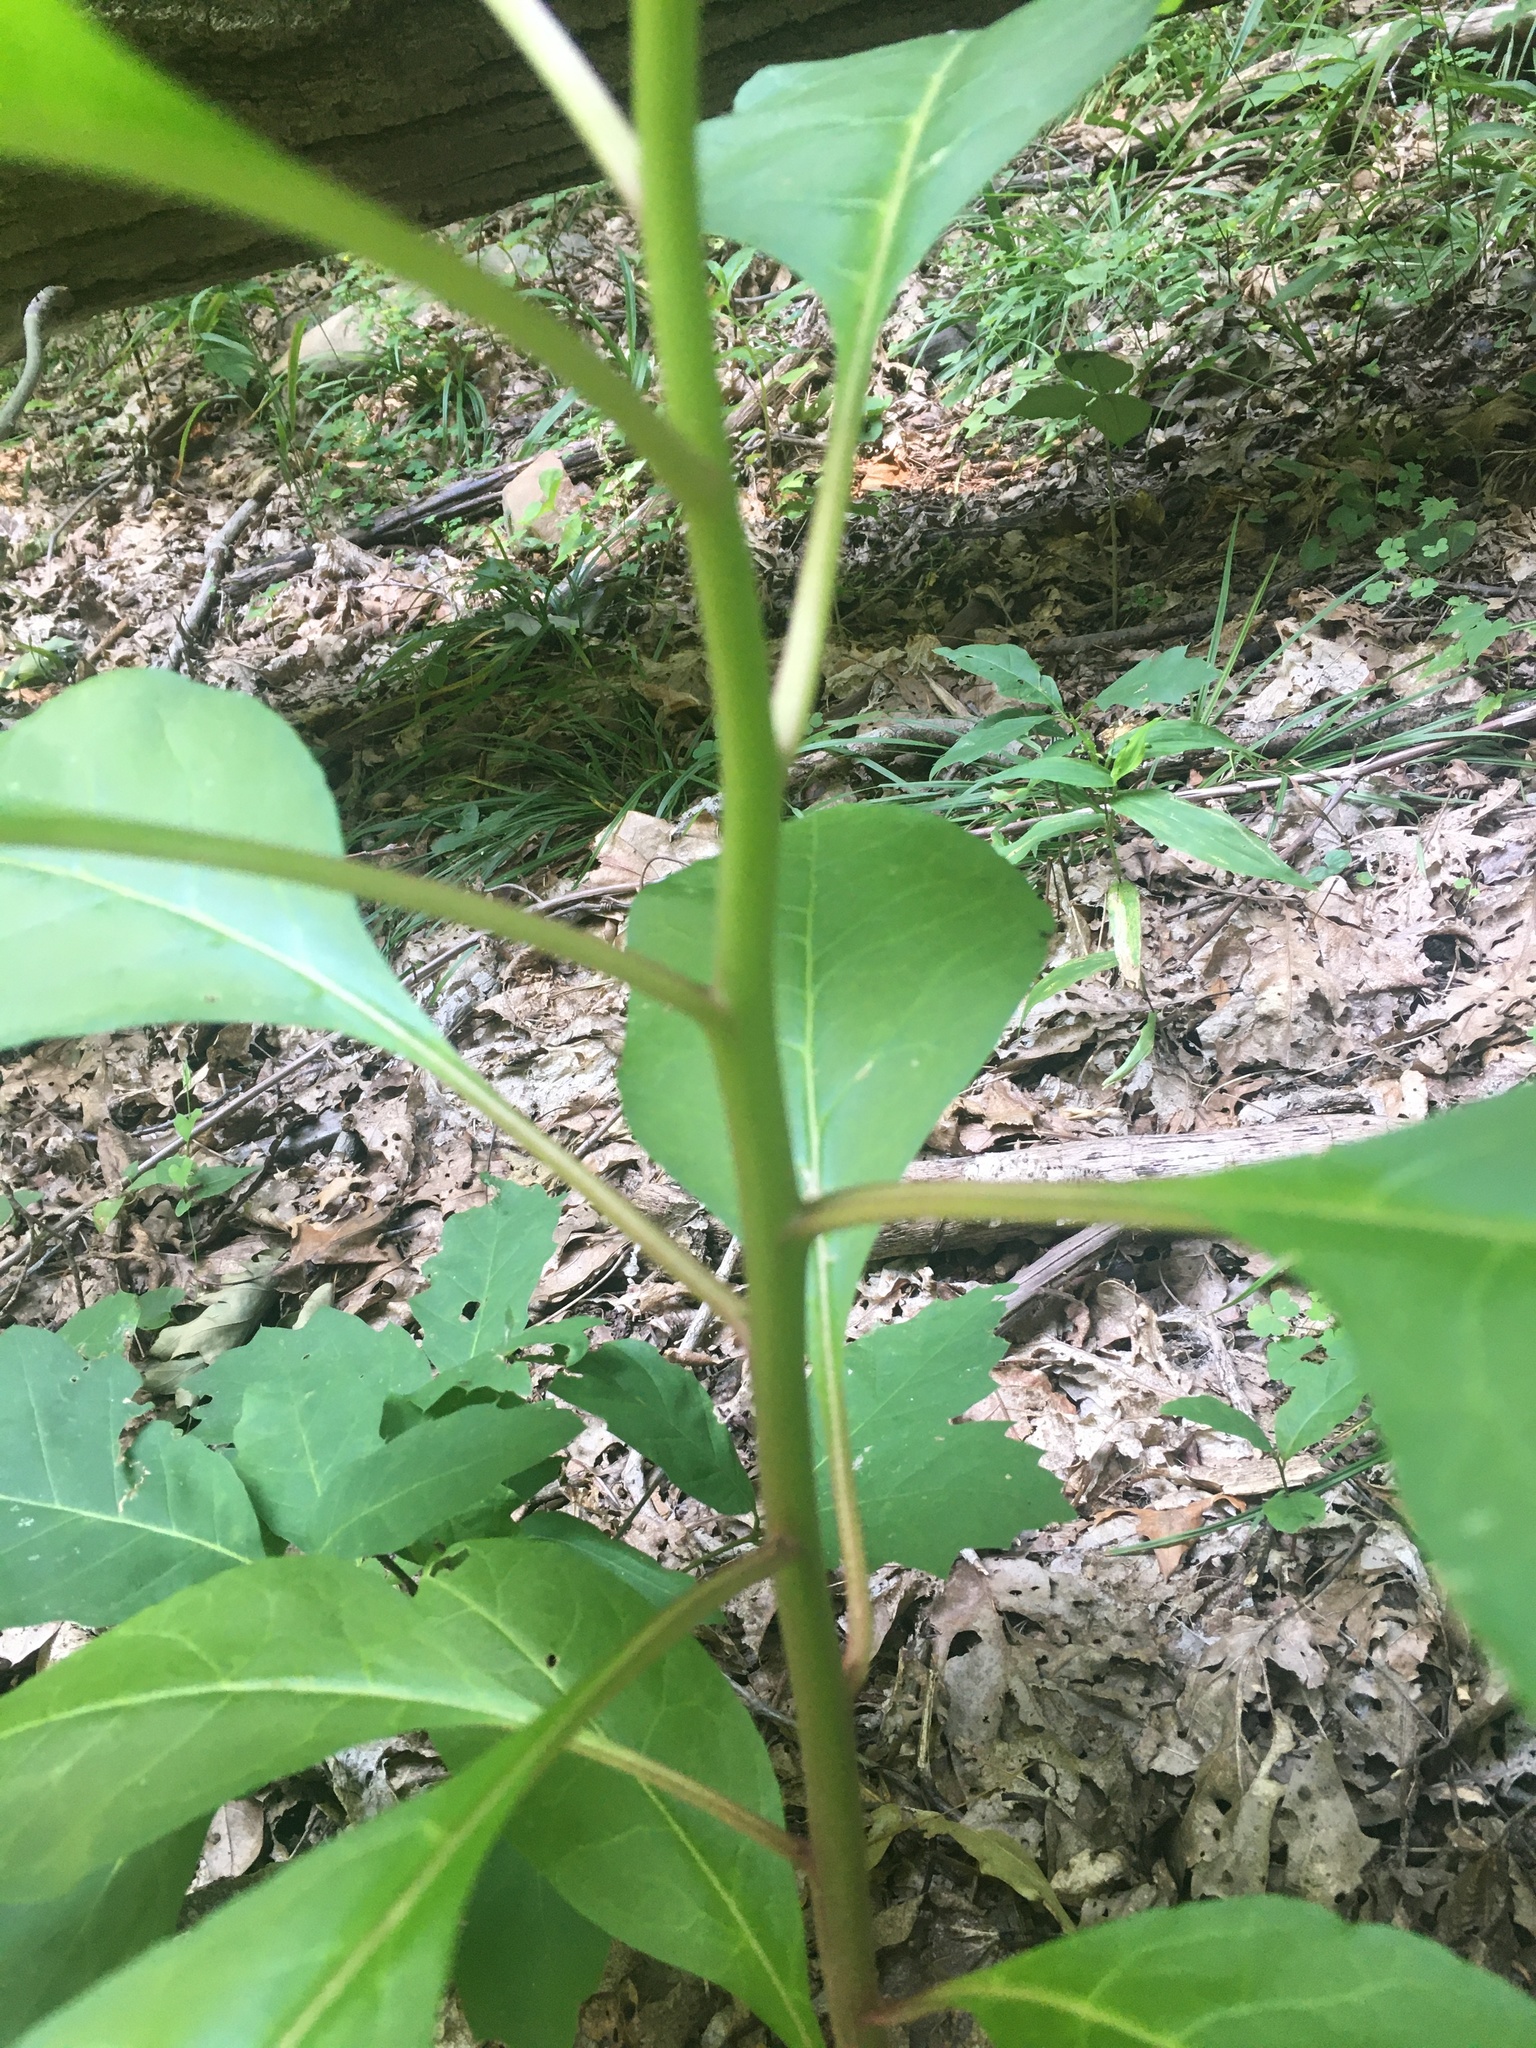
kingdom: Plantae
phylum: Tracheophyta
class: Magnoliopsida
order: Caryophyllales
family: Phytolaccaceae
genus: Phytolacca
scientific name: Phytolacca americana
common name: American pokeweed
